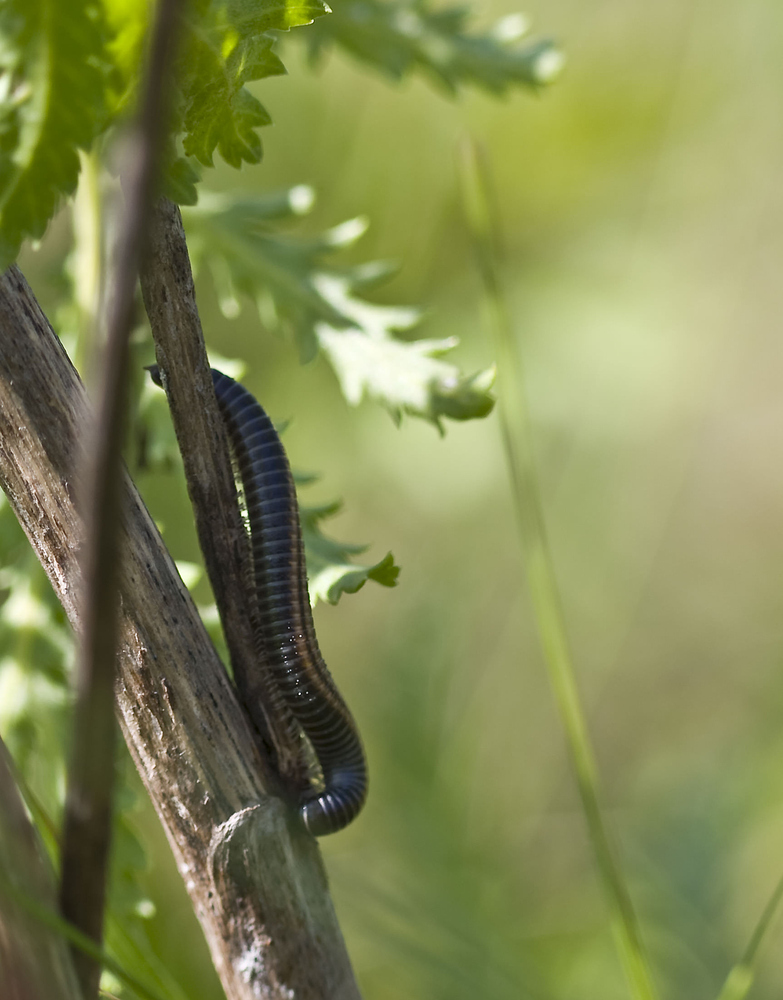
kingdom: Animalia
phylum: Arthropoda
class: Diplopoda
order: Julida
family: Julidae
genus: Ommatoiulus
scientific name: Ommatoiulus sabulosus
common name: Striped millipede
